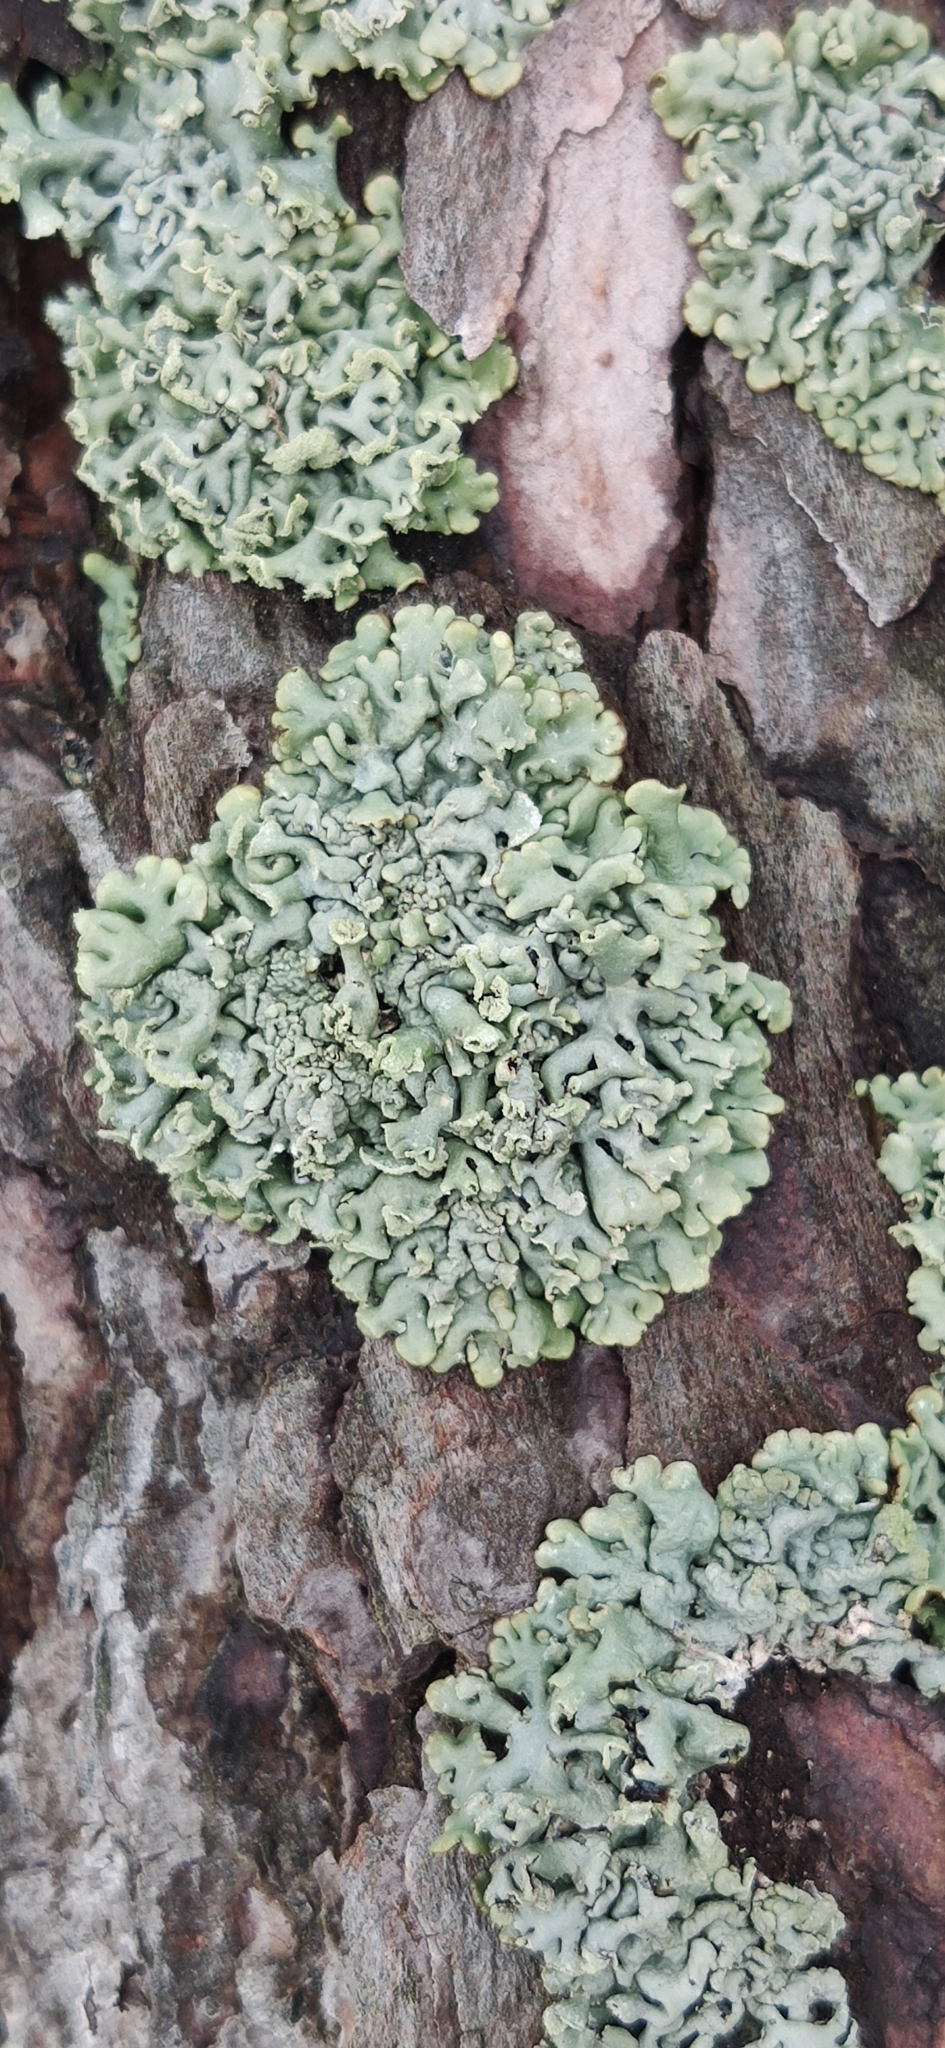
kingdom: Fungi
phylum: Ascomycota
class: Lecanoromycetes
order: Lecanorales
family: Parmeliaceae
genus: Hypogymnia
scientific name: Hypogymnia physodes
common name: Dark crottle
